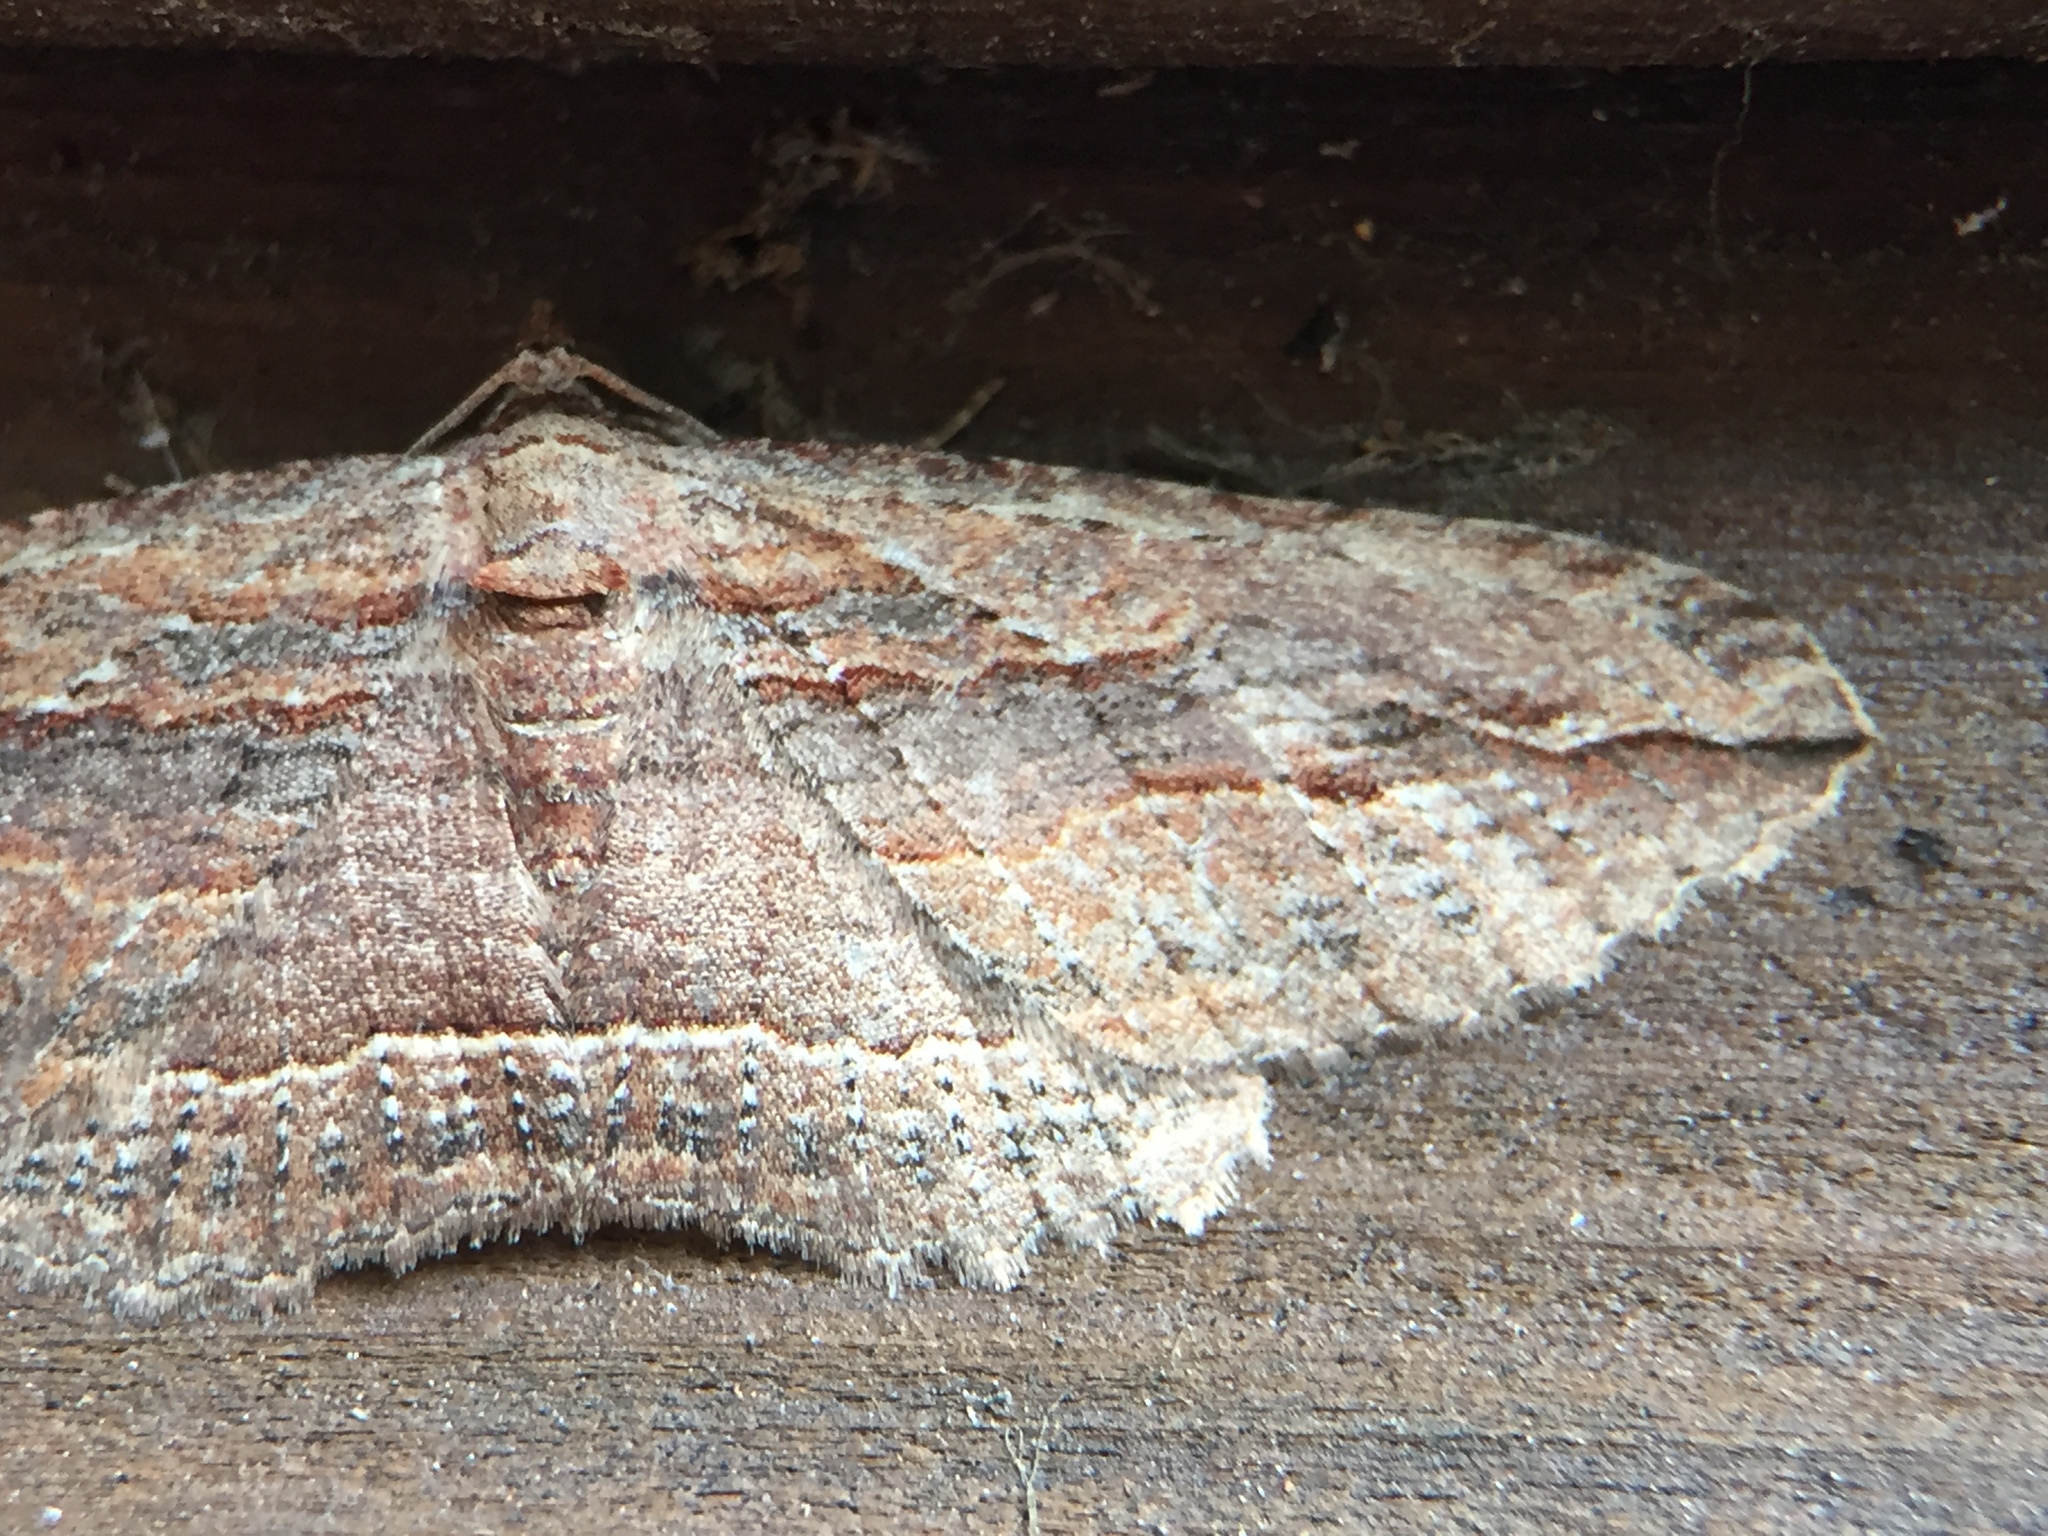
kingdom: Animalia
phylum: Arthropoda
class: Insecta
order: Lepidoptera
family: Geometridae
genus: Austrocidaria
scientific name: Austrocidaria gobiata
